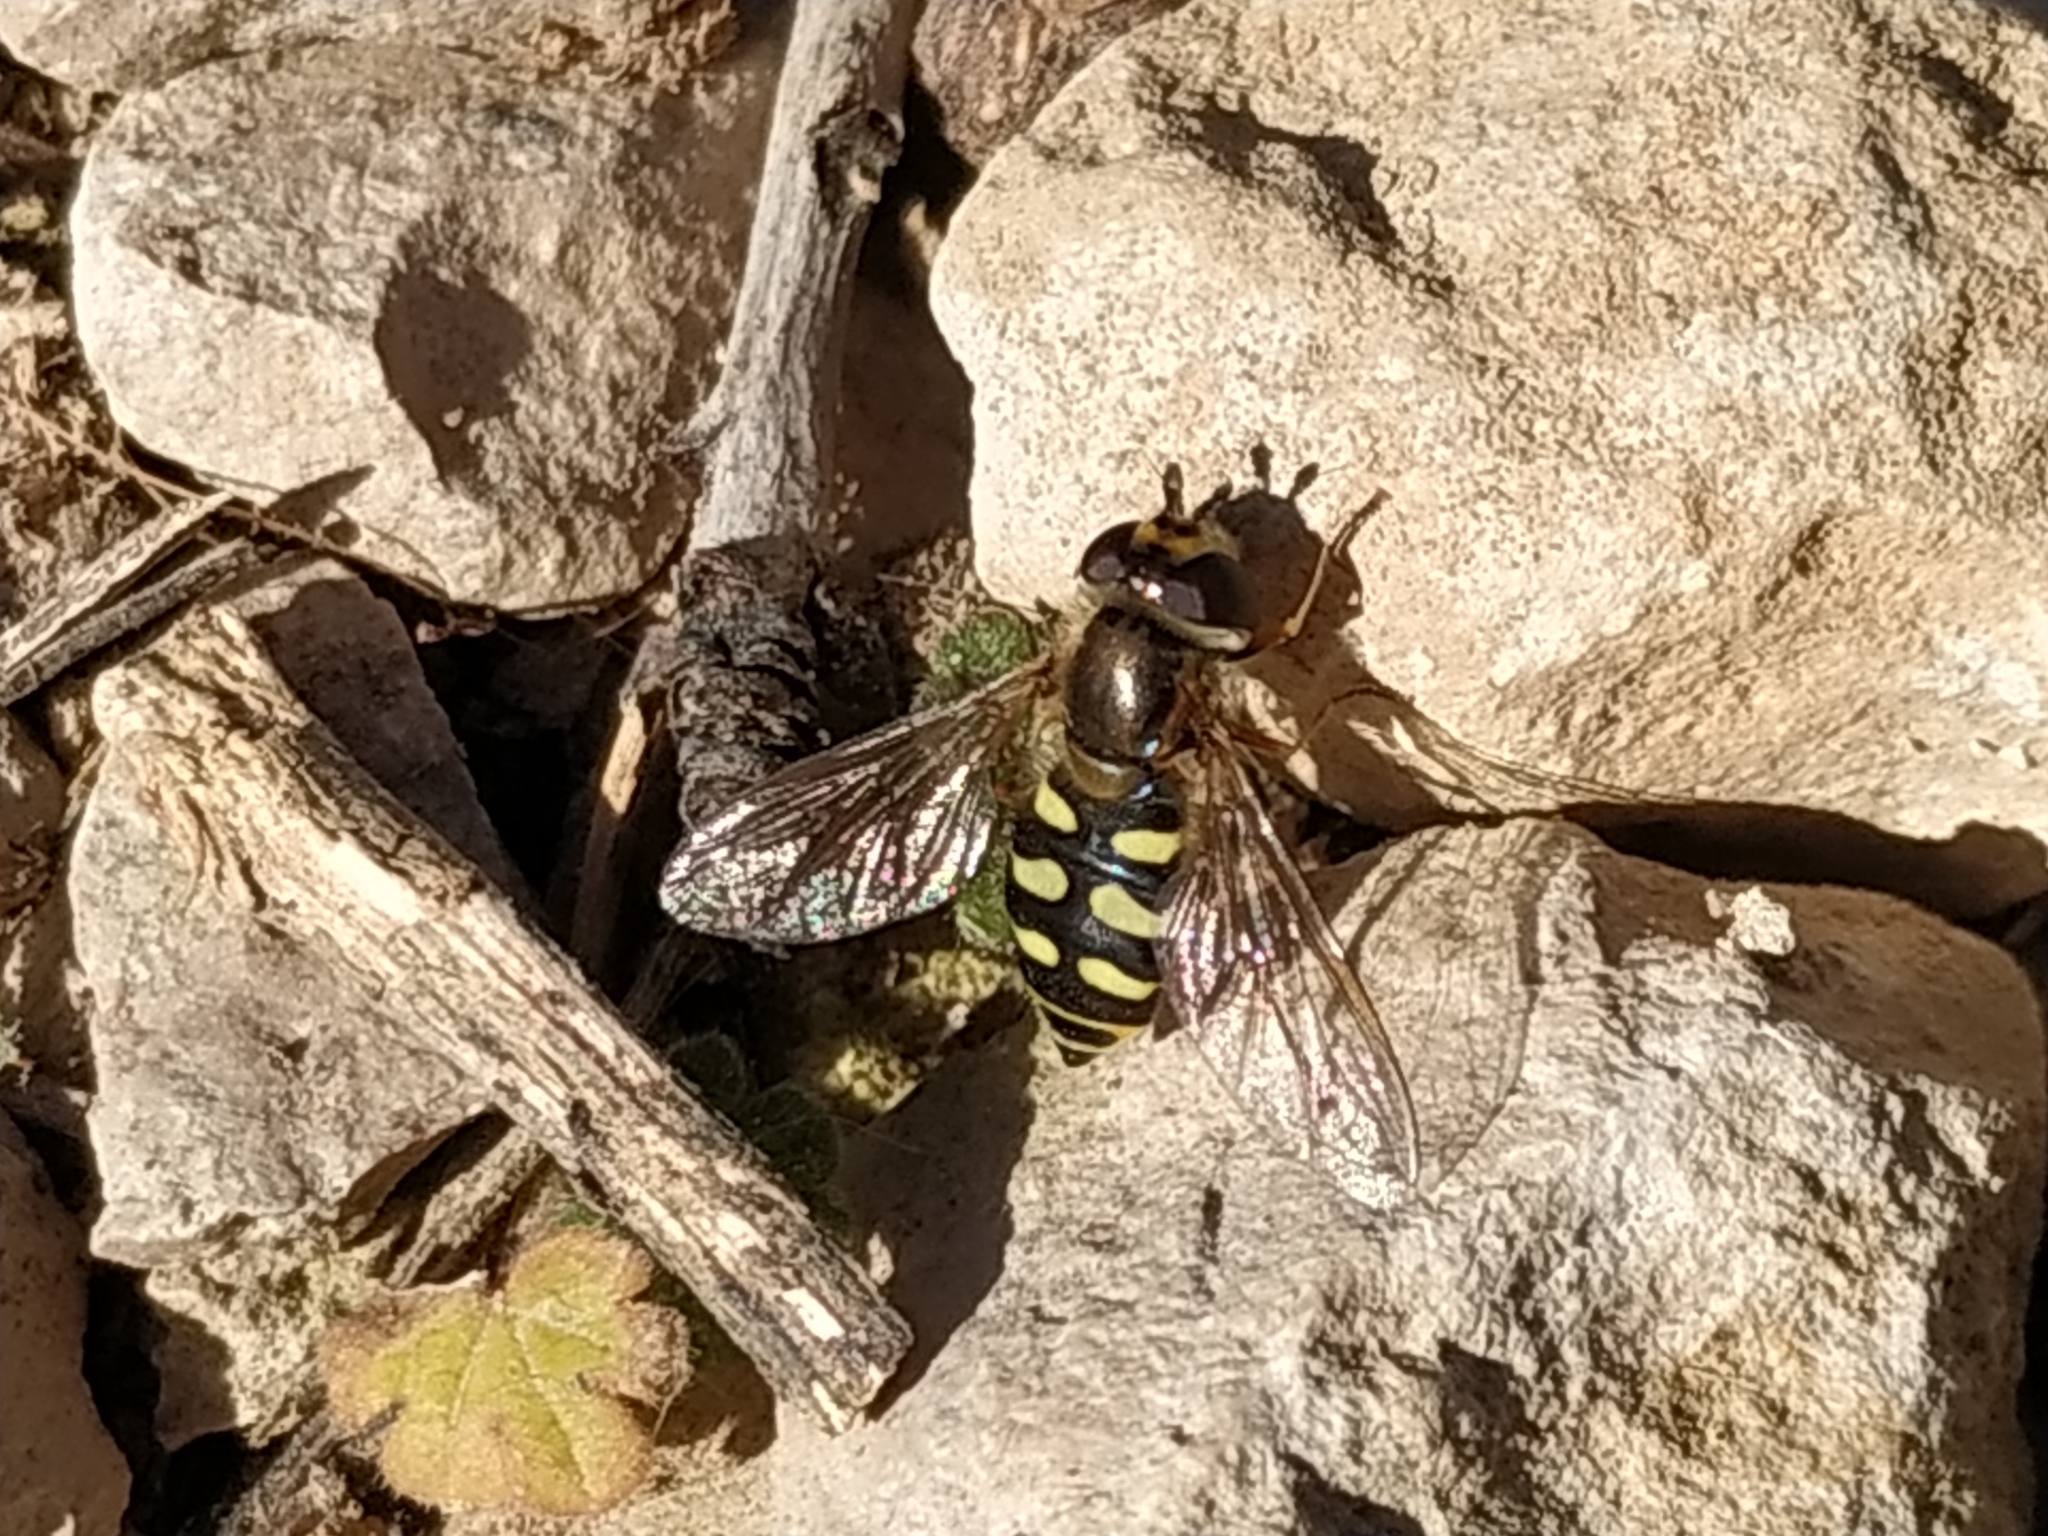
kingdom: Animalia
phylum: Arthropoda
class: Insecta
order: Diptera
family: Syrphidae
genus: Eupeodes
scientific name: Eupeodes corollae
